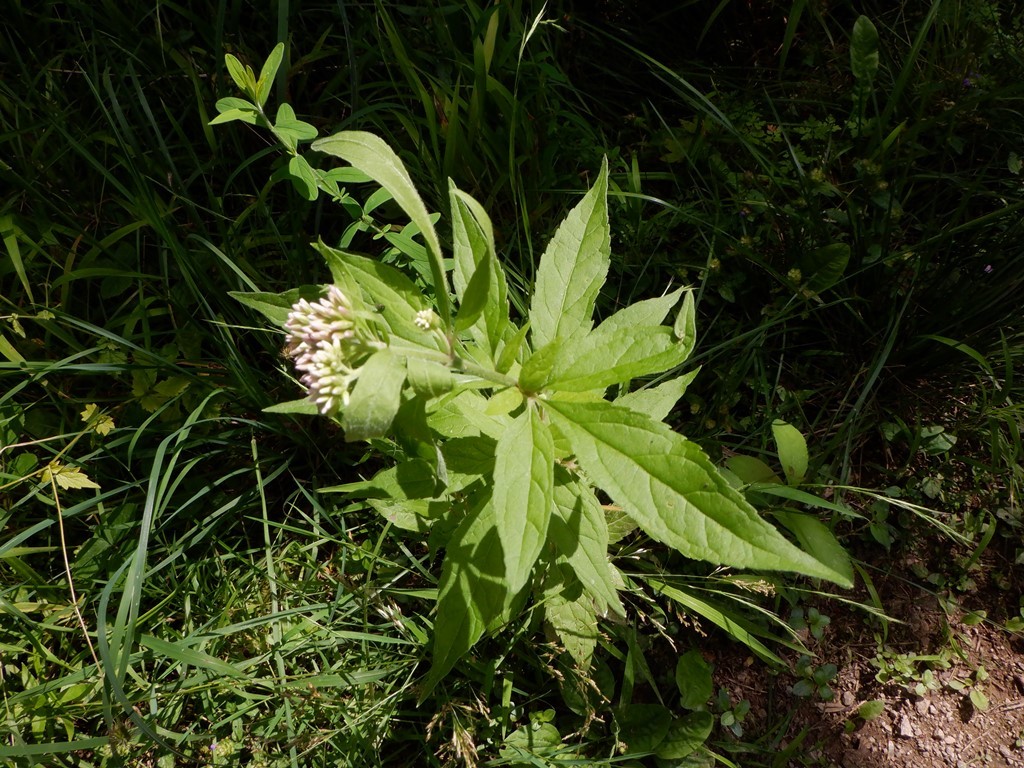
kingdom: Plantae
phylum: Tracheophyta
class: Magnoliopsida
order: Asterales
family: Asteraceae
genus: Eupatorium
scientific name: Eupatorium cannabinum
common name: Hemp-agrimony
